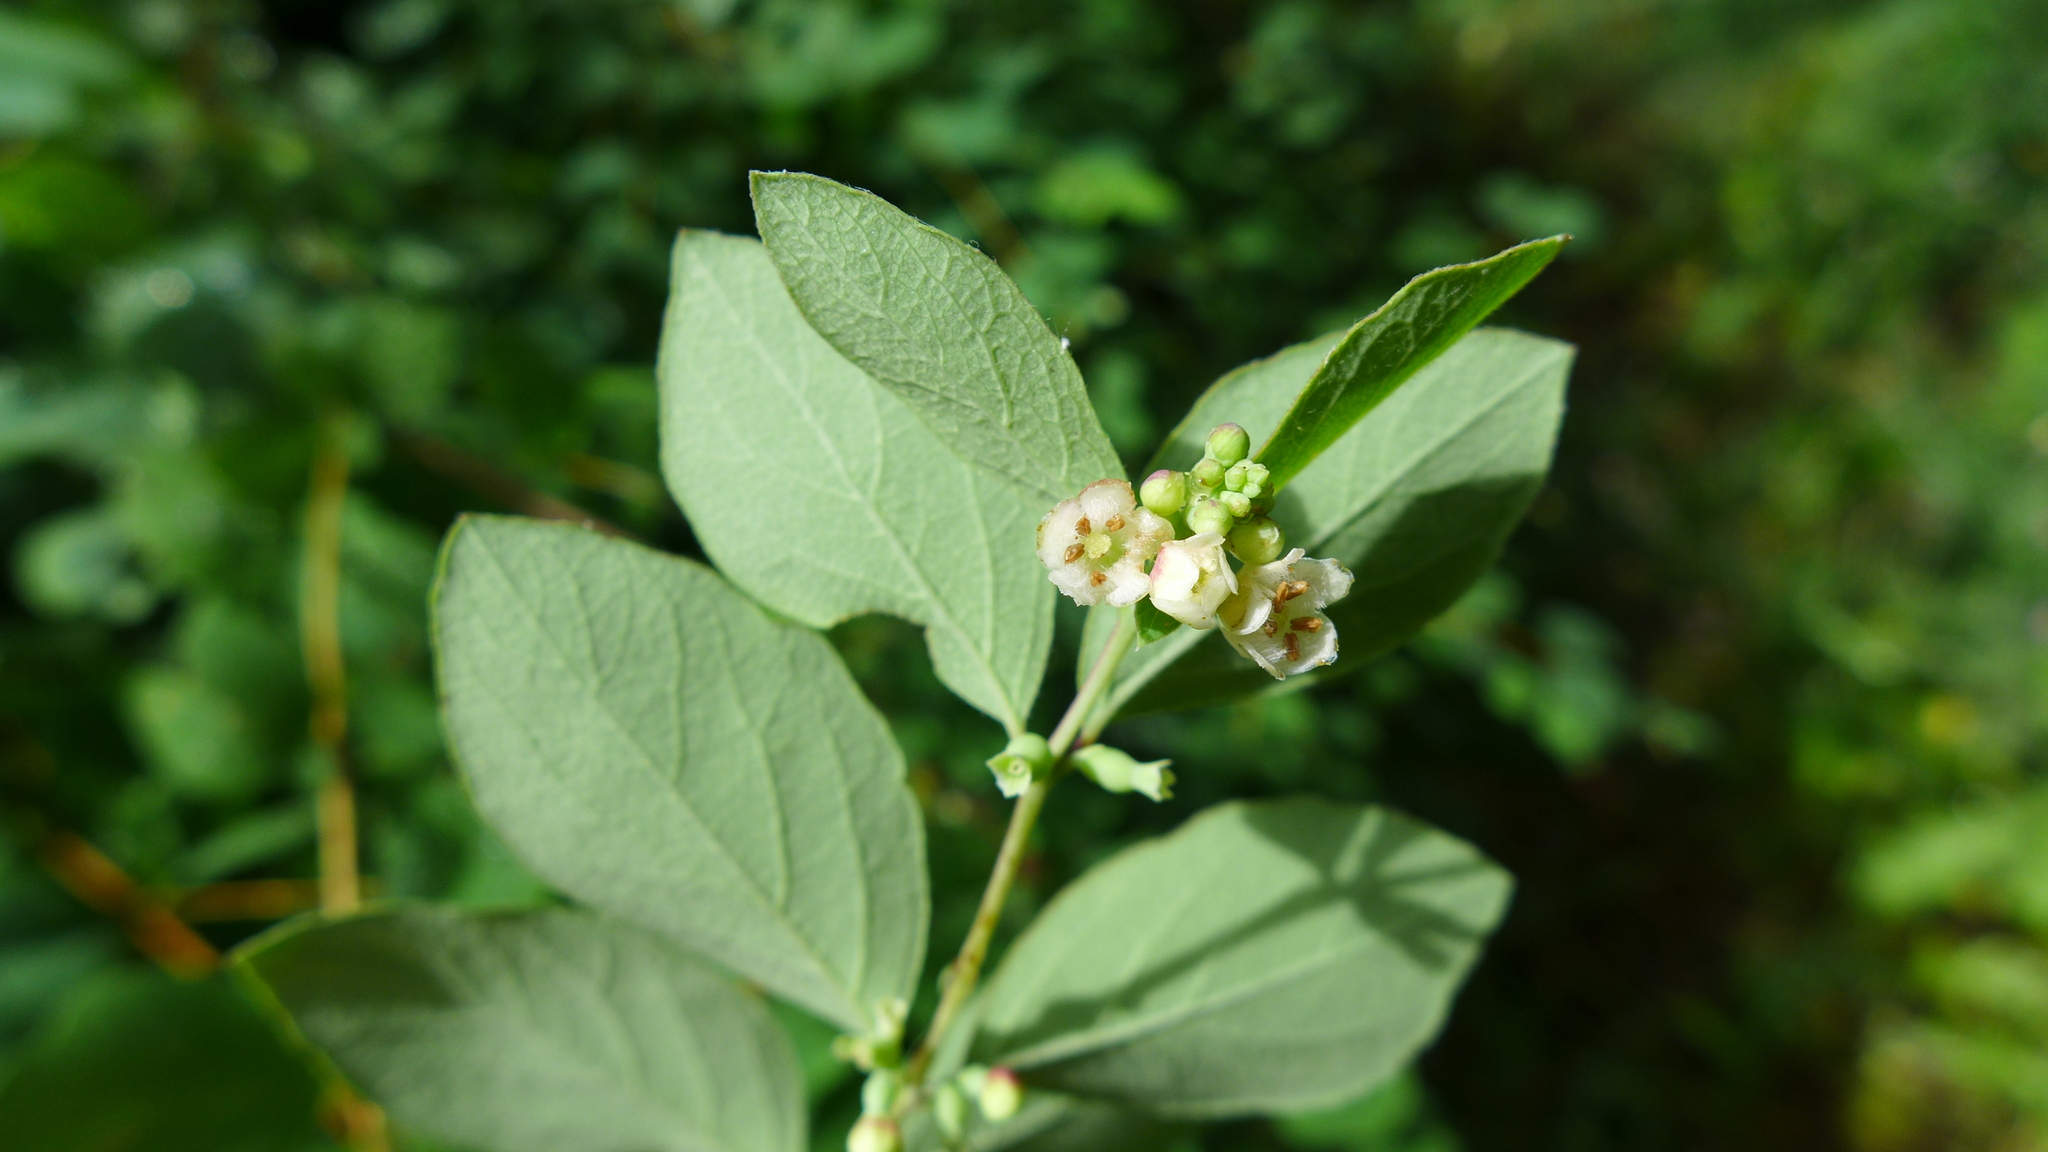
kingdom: Plantae
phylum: Tracheophyta
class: Magnoliopsida
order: Dipsacales
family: Caprifoliaceae
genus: Symphoricarpos
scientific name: Symphoricarpos albus
